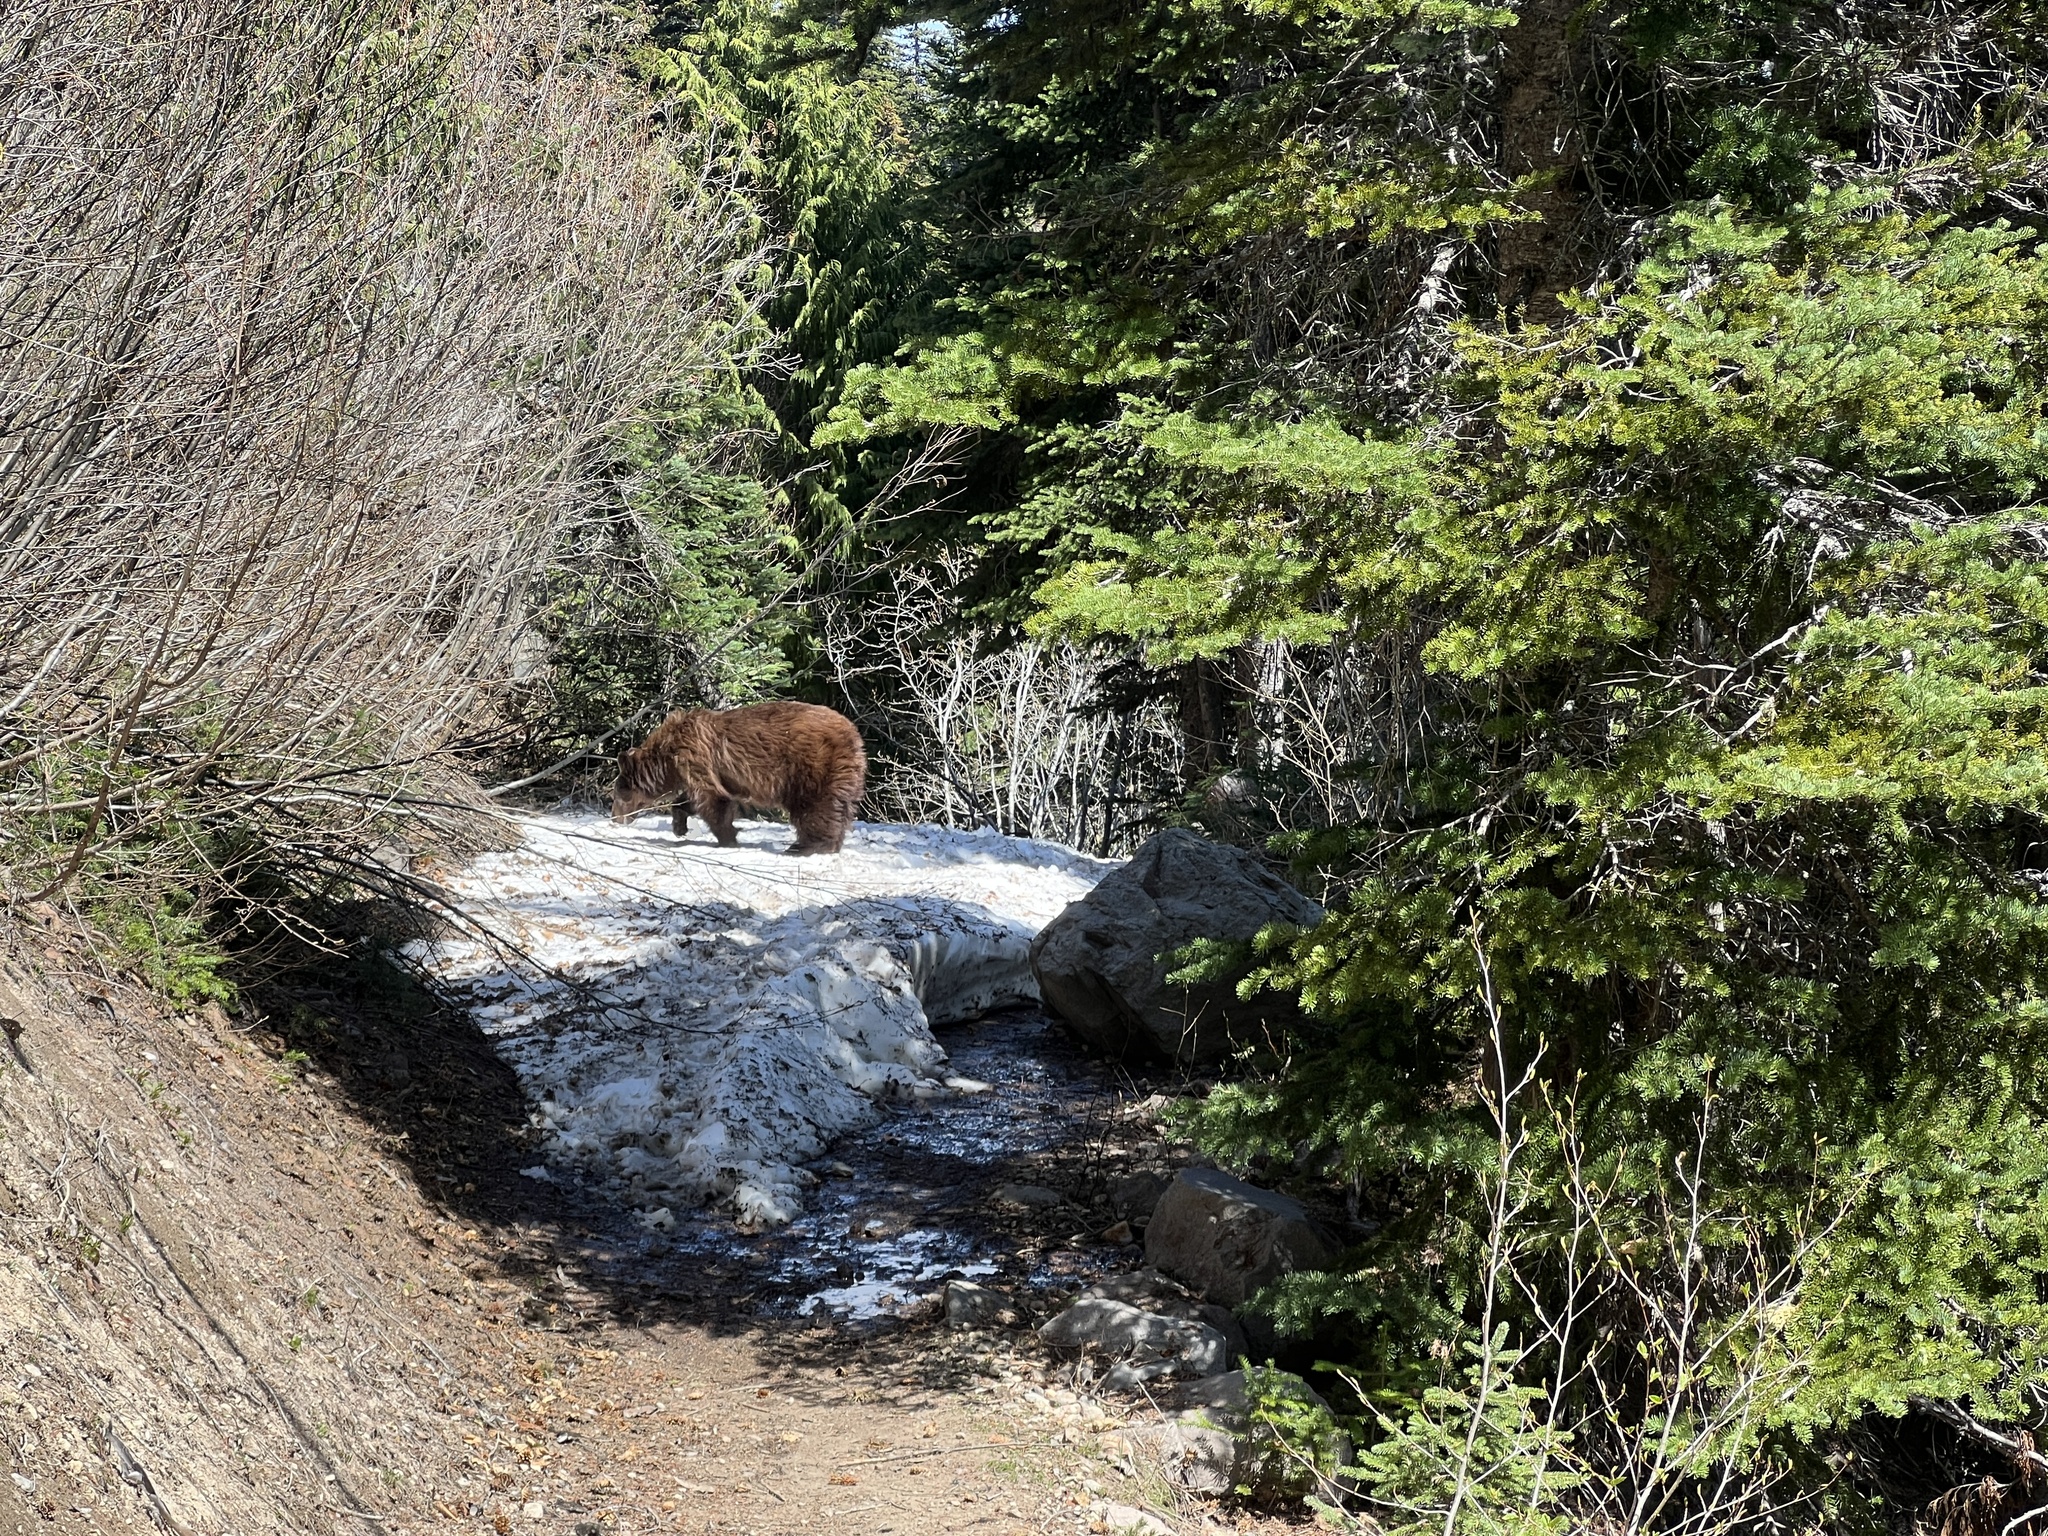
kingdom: Animalia
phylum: Chordata
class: Mammalia
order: Carnivora
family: Ursidae
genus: Ursus
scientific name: Ursus americanus
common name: American black bear
